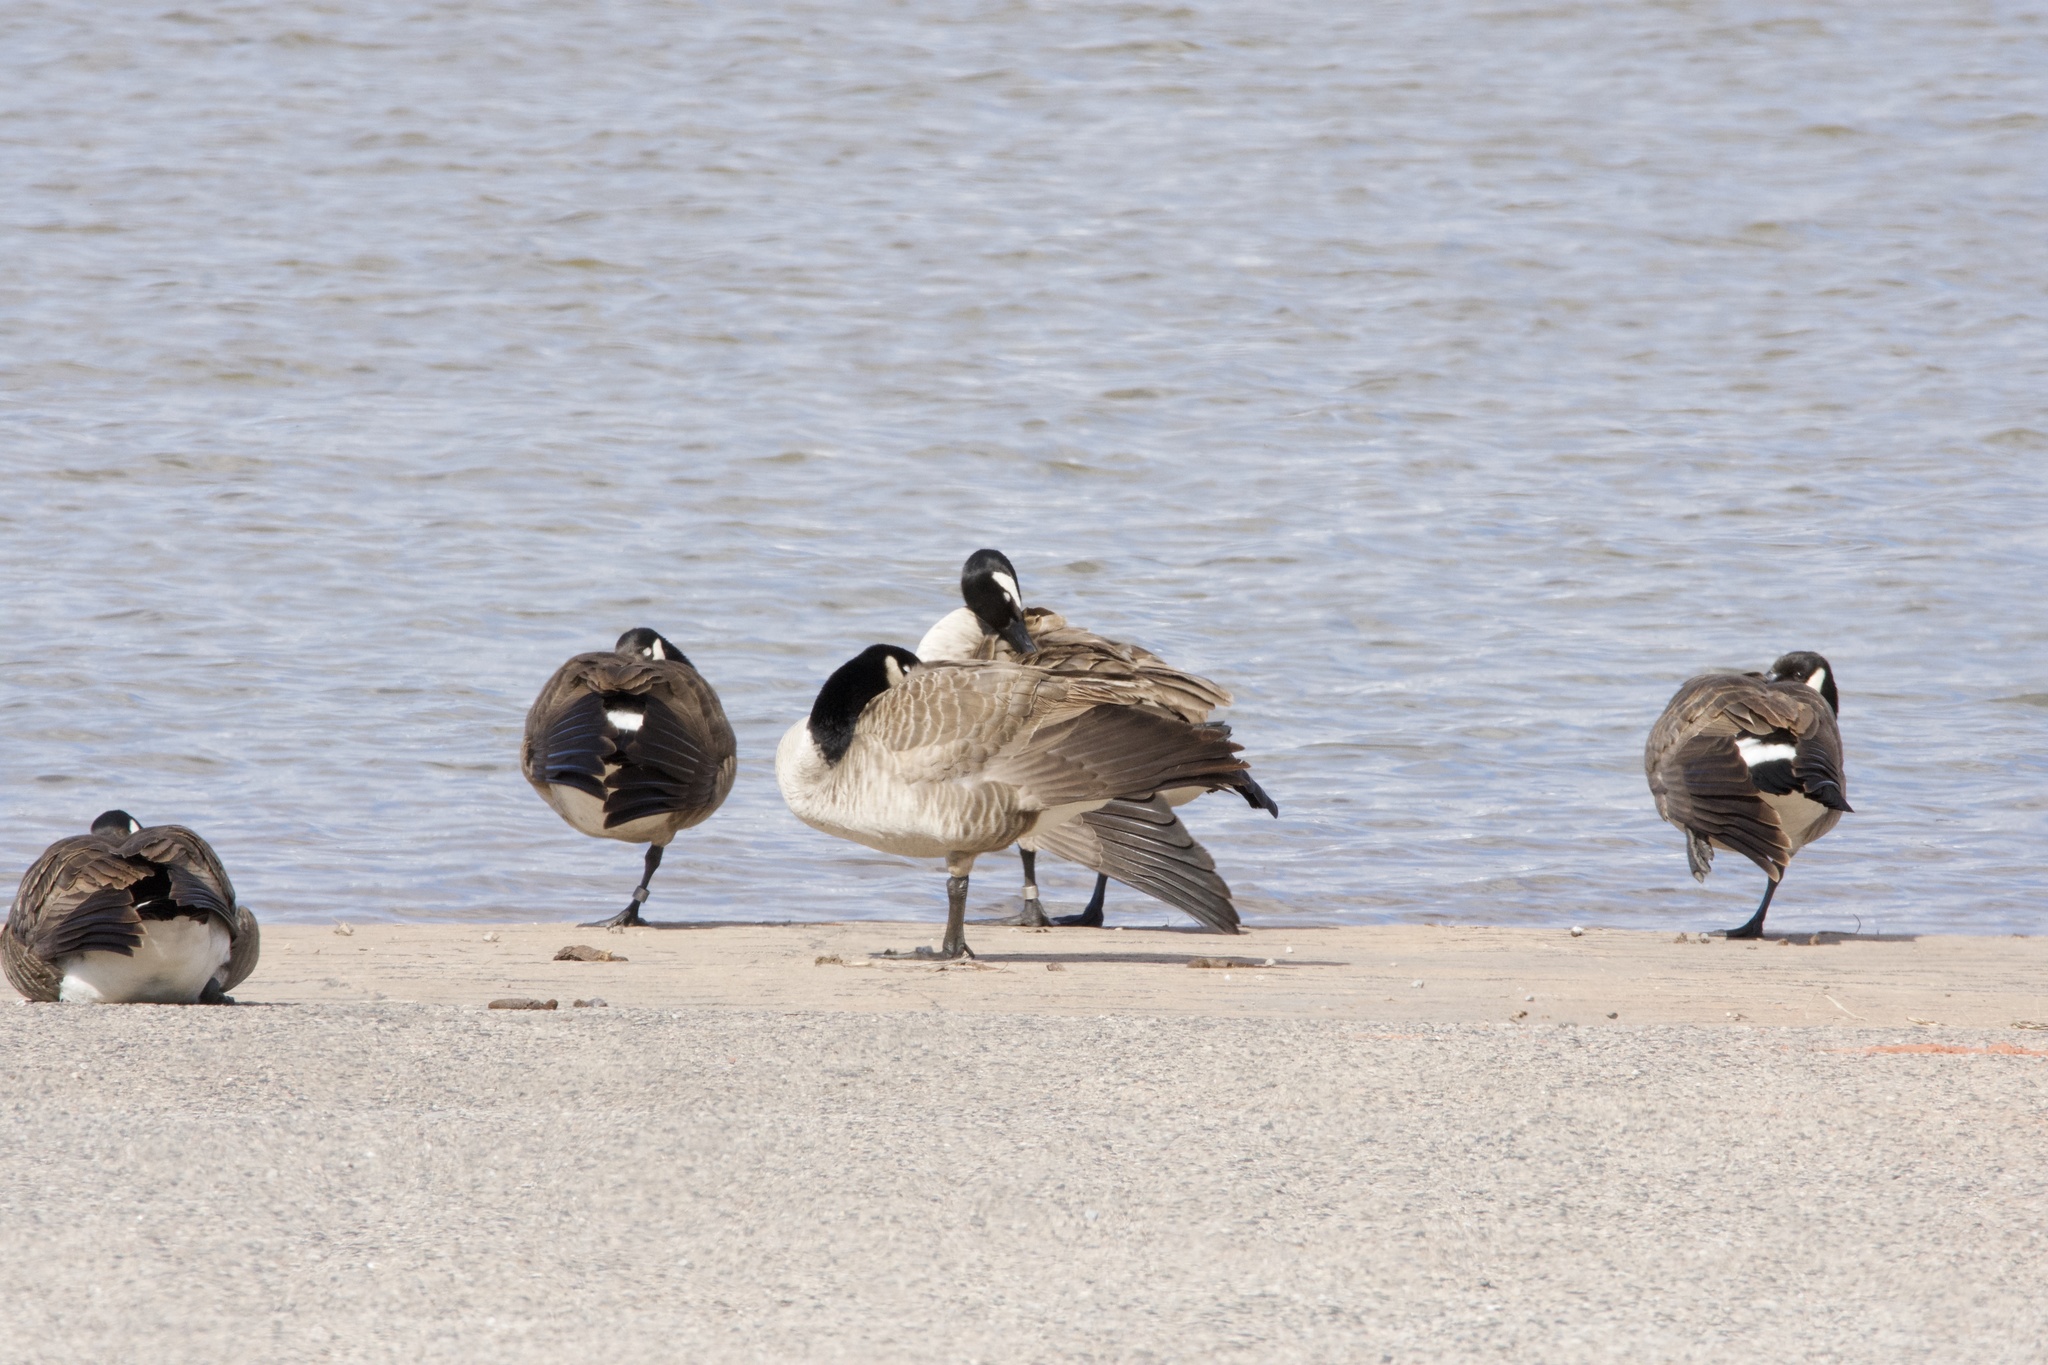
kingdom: Animalia
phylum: Chordata
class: Aves
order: Anseriformes
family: Anatidae
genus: Branta
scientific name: Branta canadensis
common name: Canada goose
